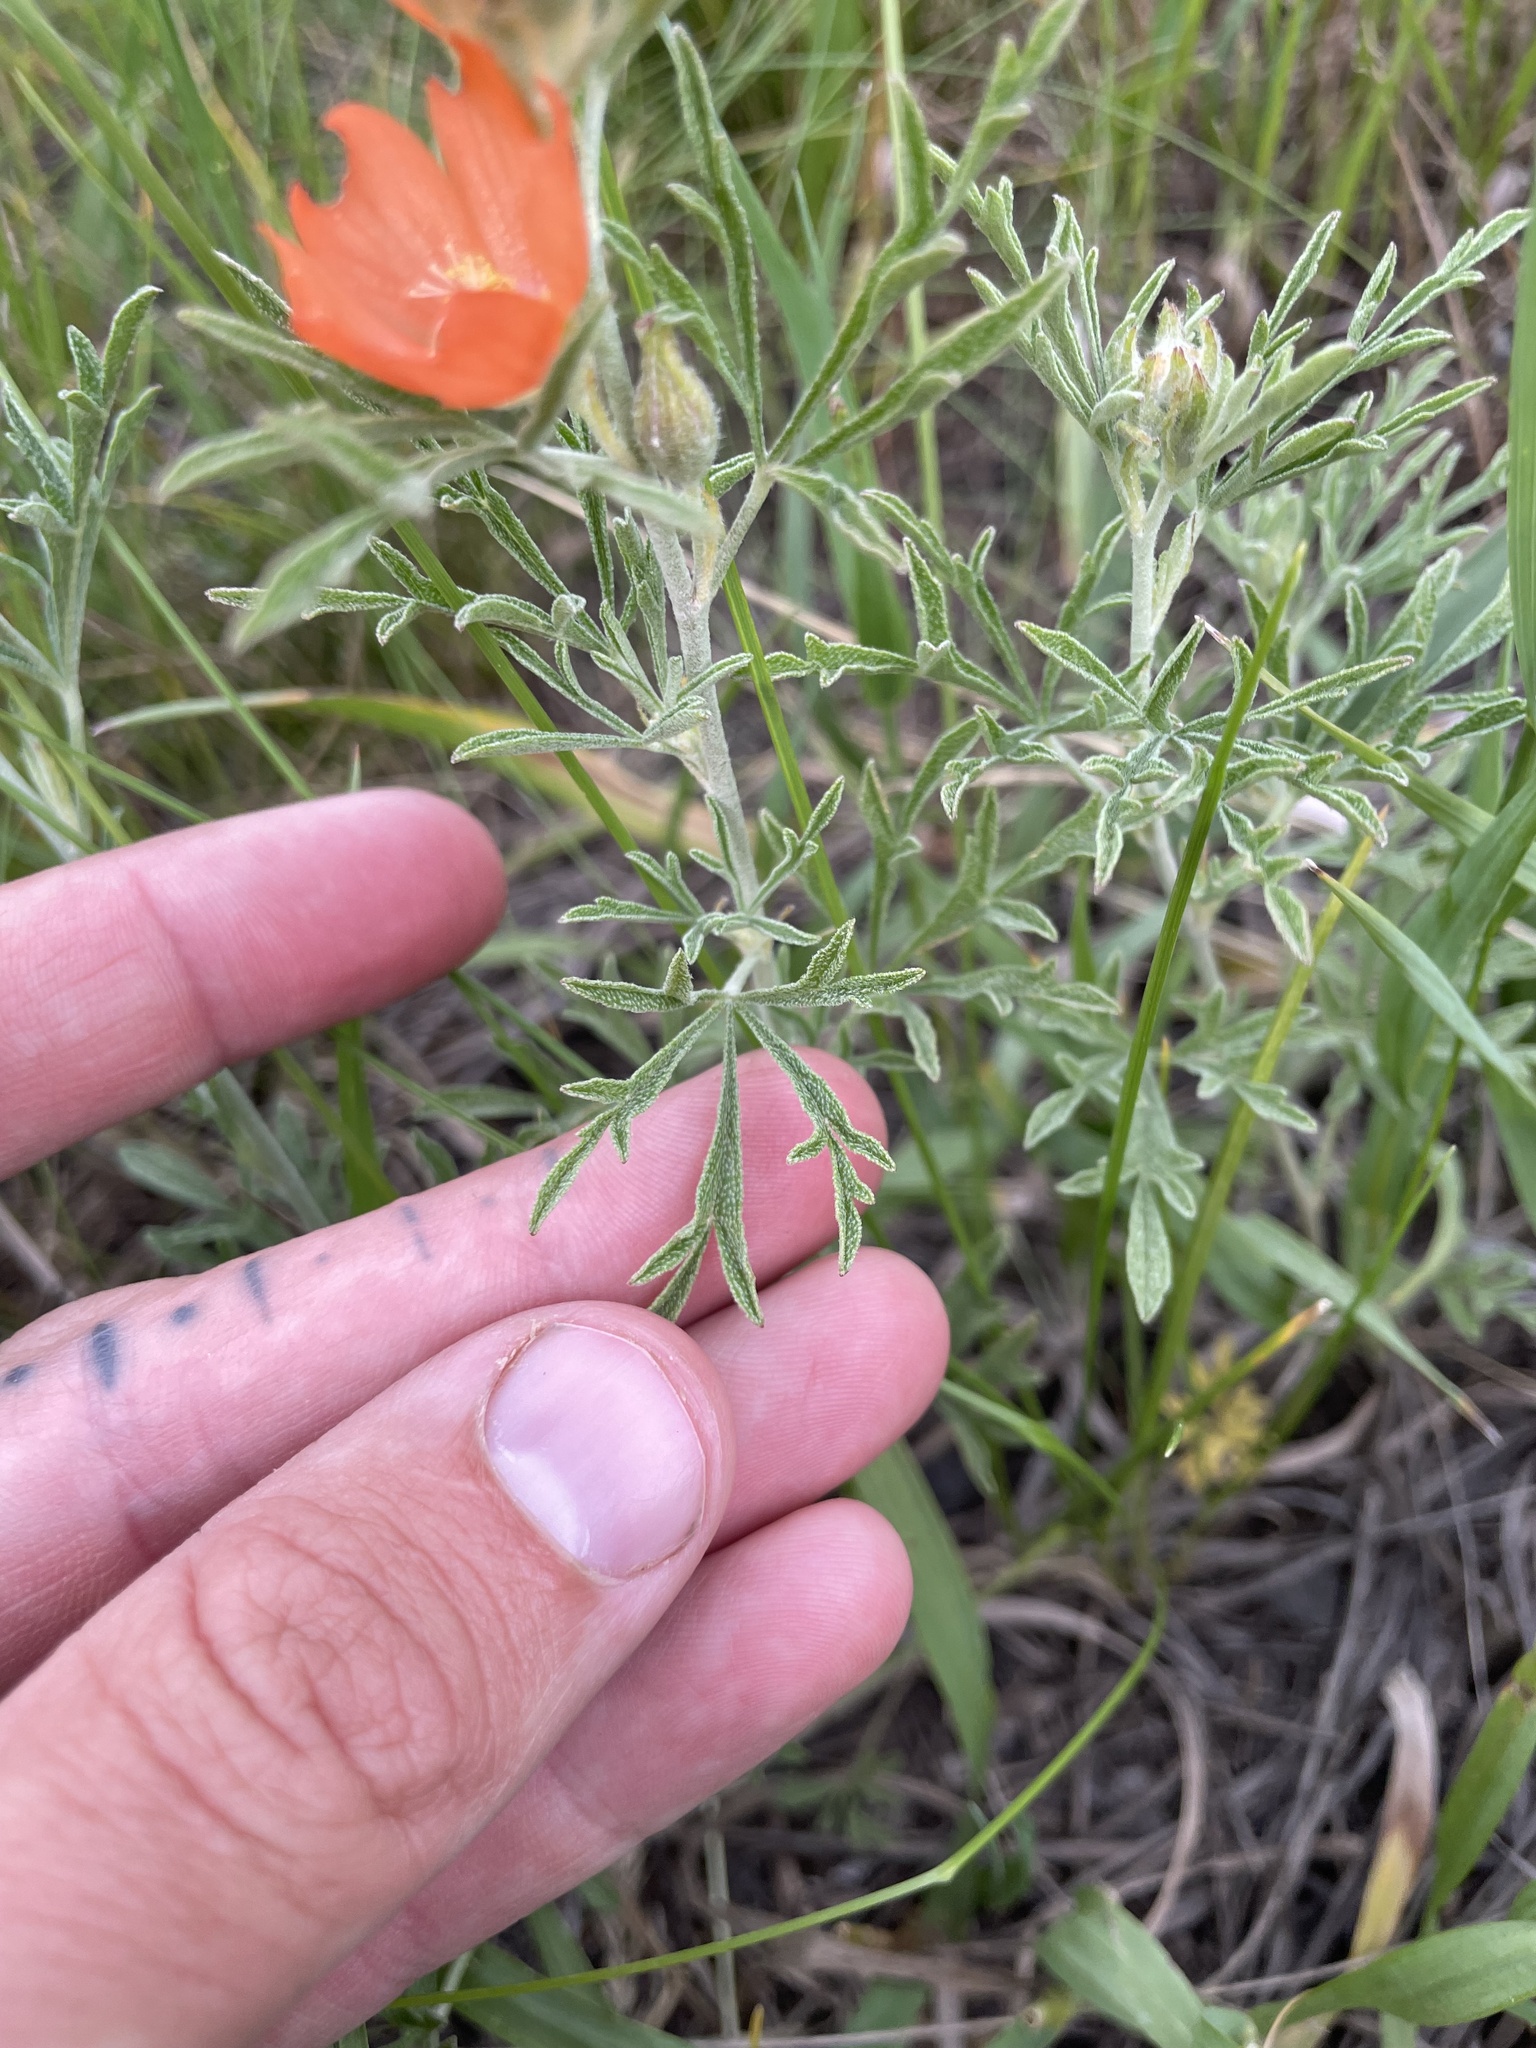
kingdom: Plantae
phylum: Tracheophyta
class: Magnoliopsida
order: Malvales
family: Malvaceae
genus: Sphaeralcea
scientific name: Sphaeralcea coccinea
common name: Moss-rose
